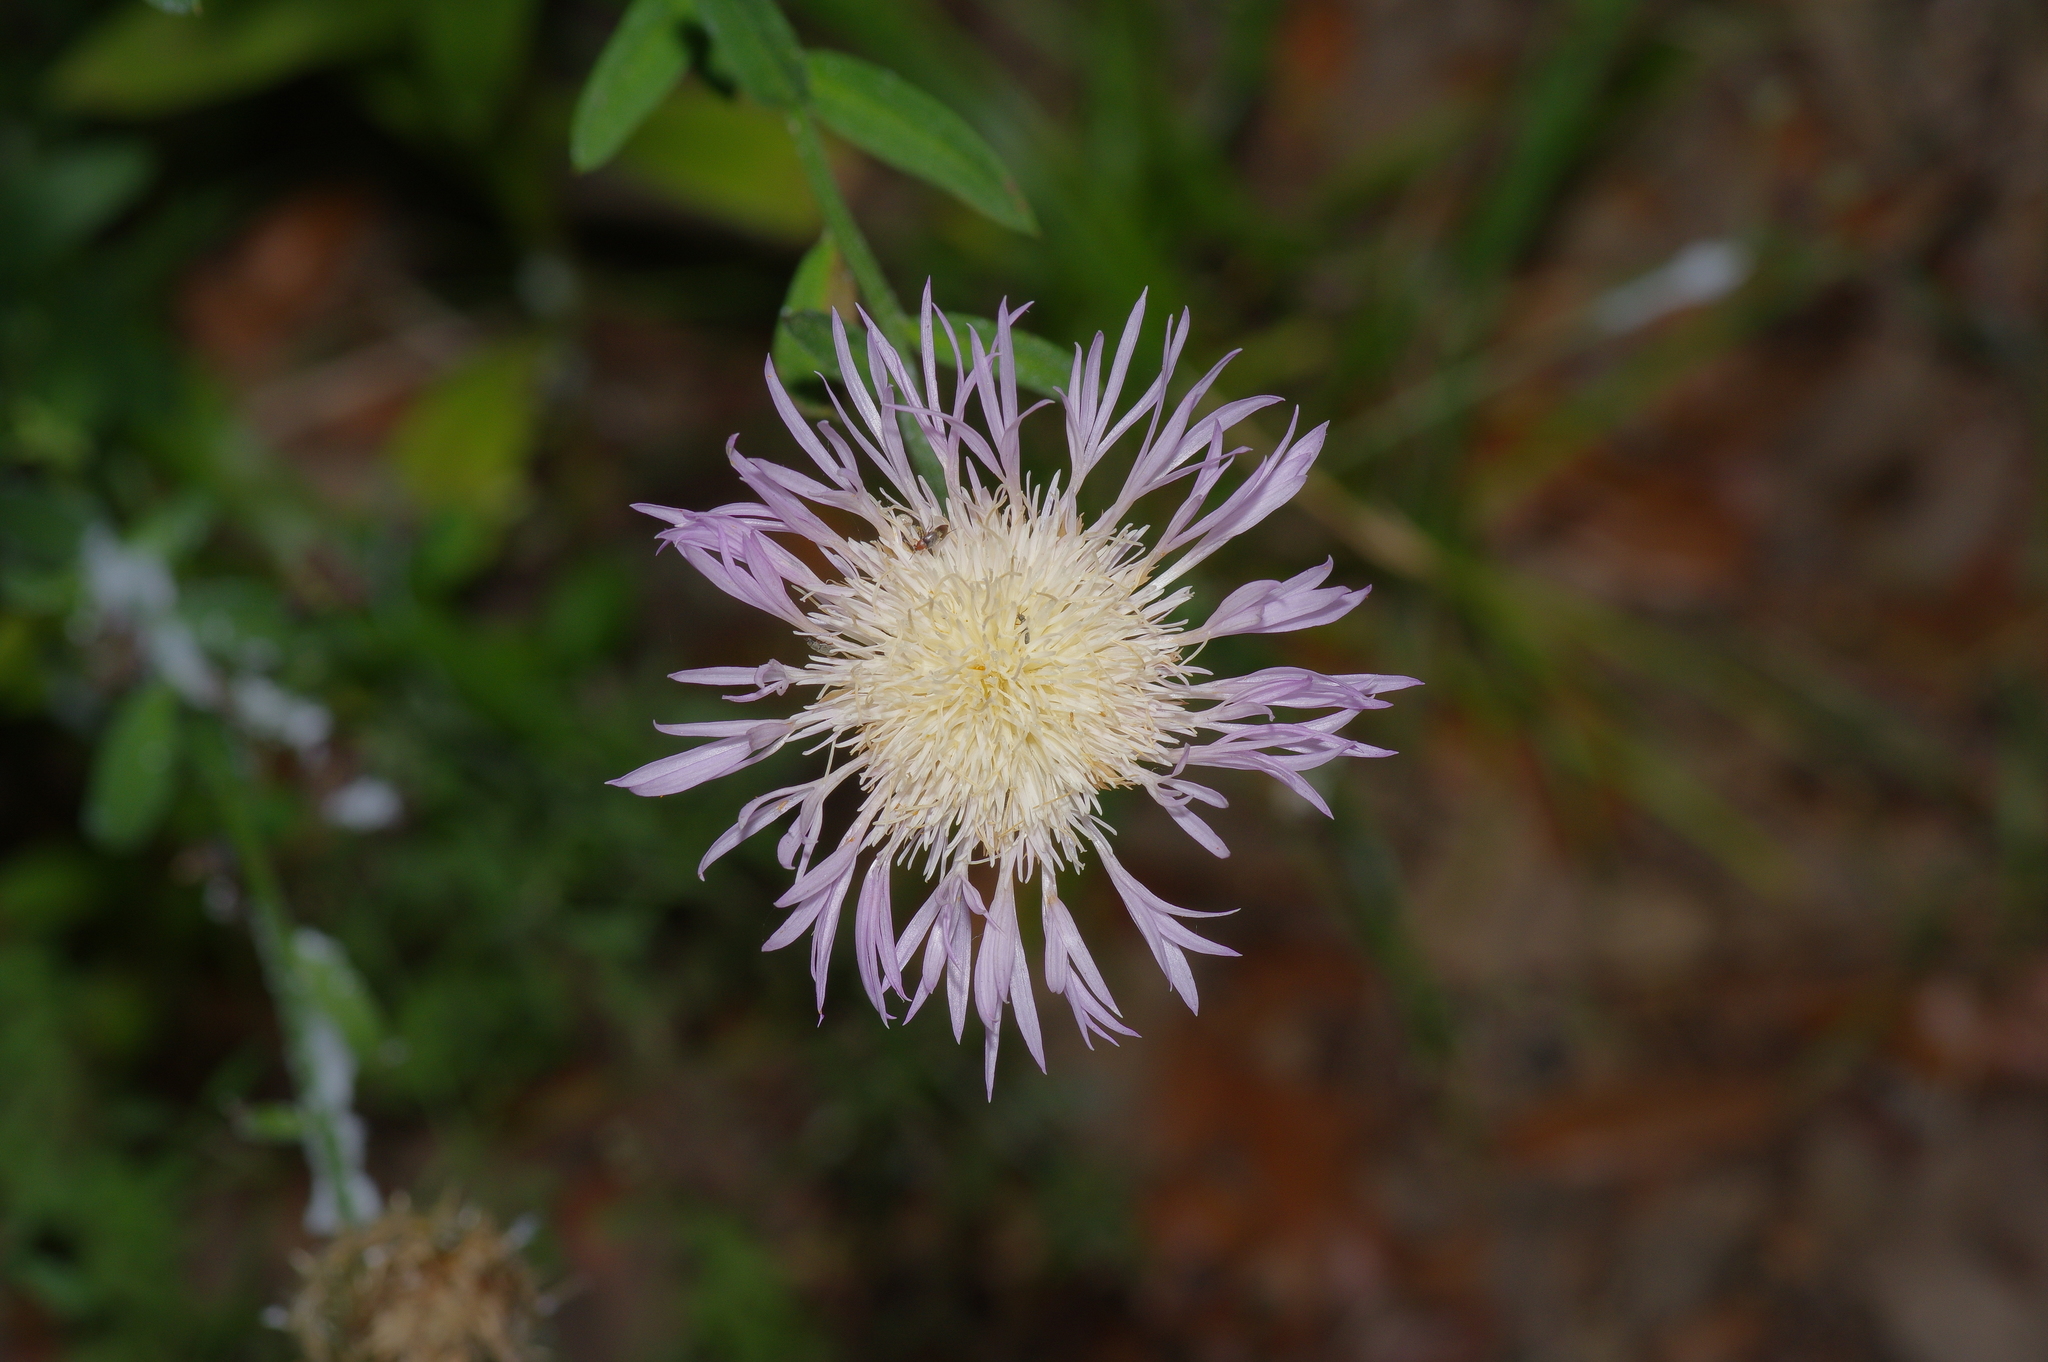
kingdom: Plantae
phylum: Tracheophyta
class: Magnoliopsida
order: Asterales
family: Asteraceae
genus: Plectocephalus
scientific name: Plectocephalus americanus
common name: American basket-flower
